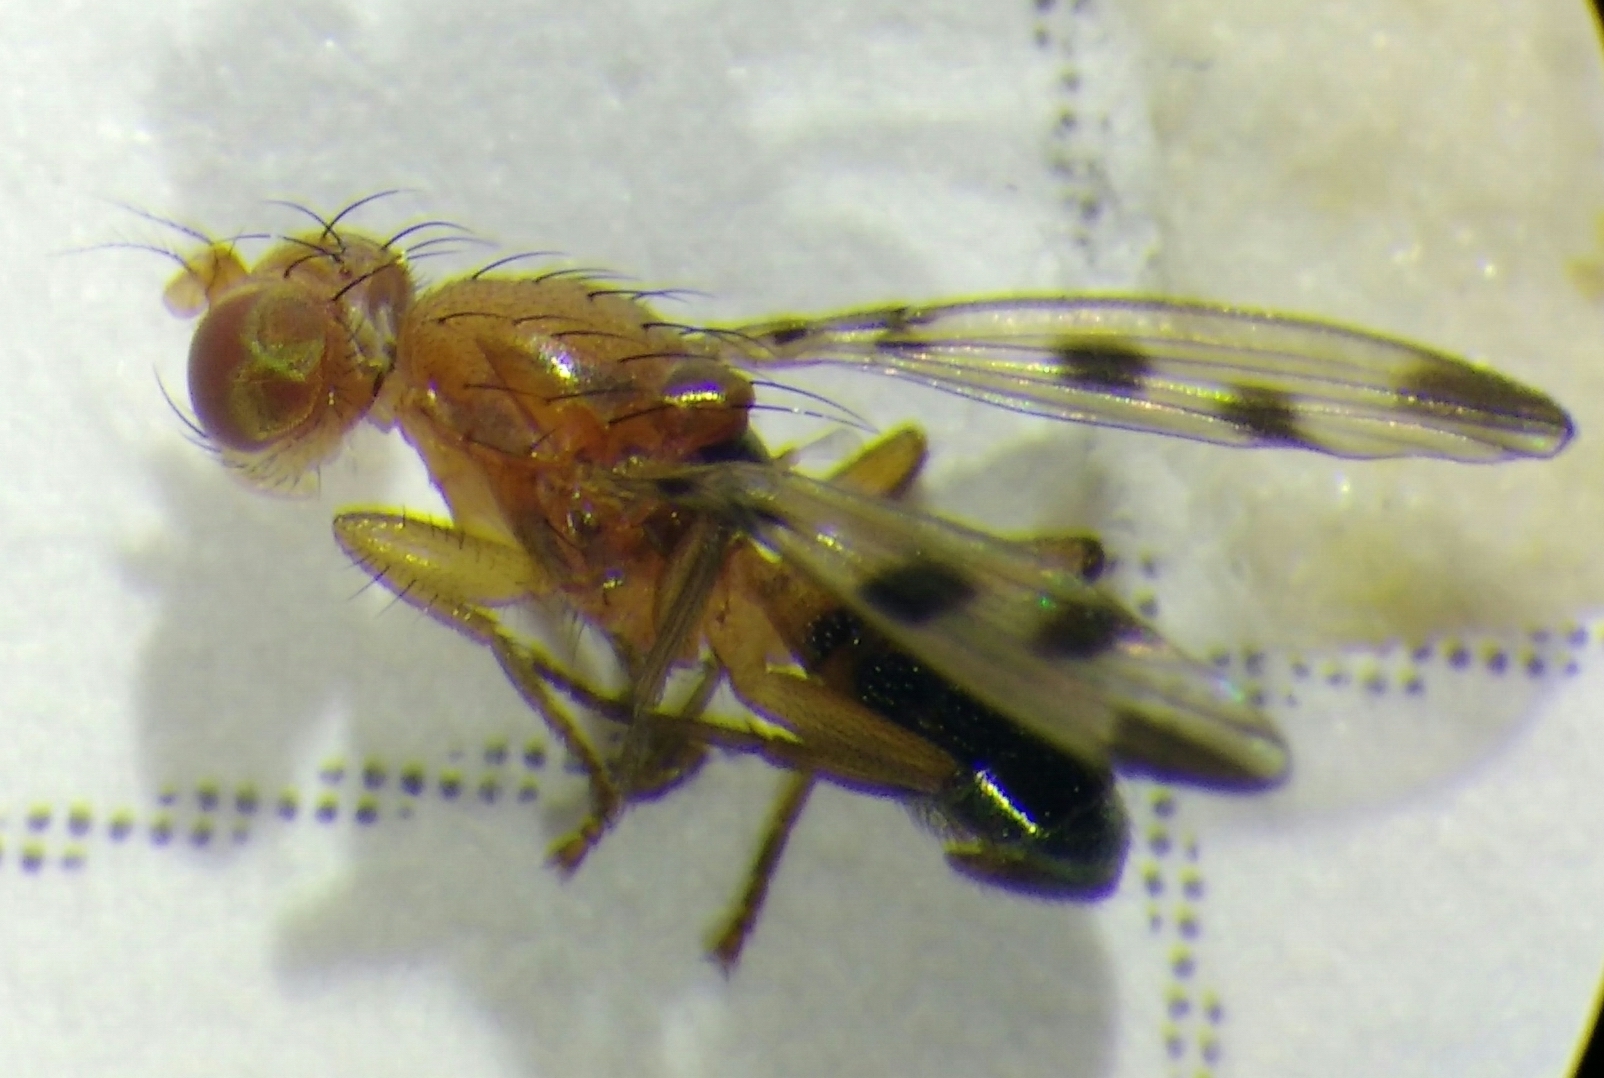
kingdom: Animalia
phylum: Arthropoda
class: Insecta
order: Diptera
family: Opomyzidae
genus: Geomyza
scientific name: Geomyza tripunctata
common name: Cereal fly
